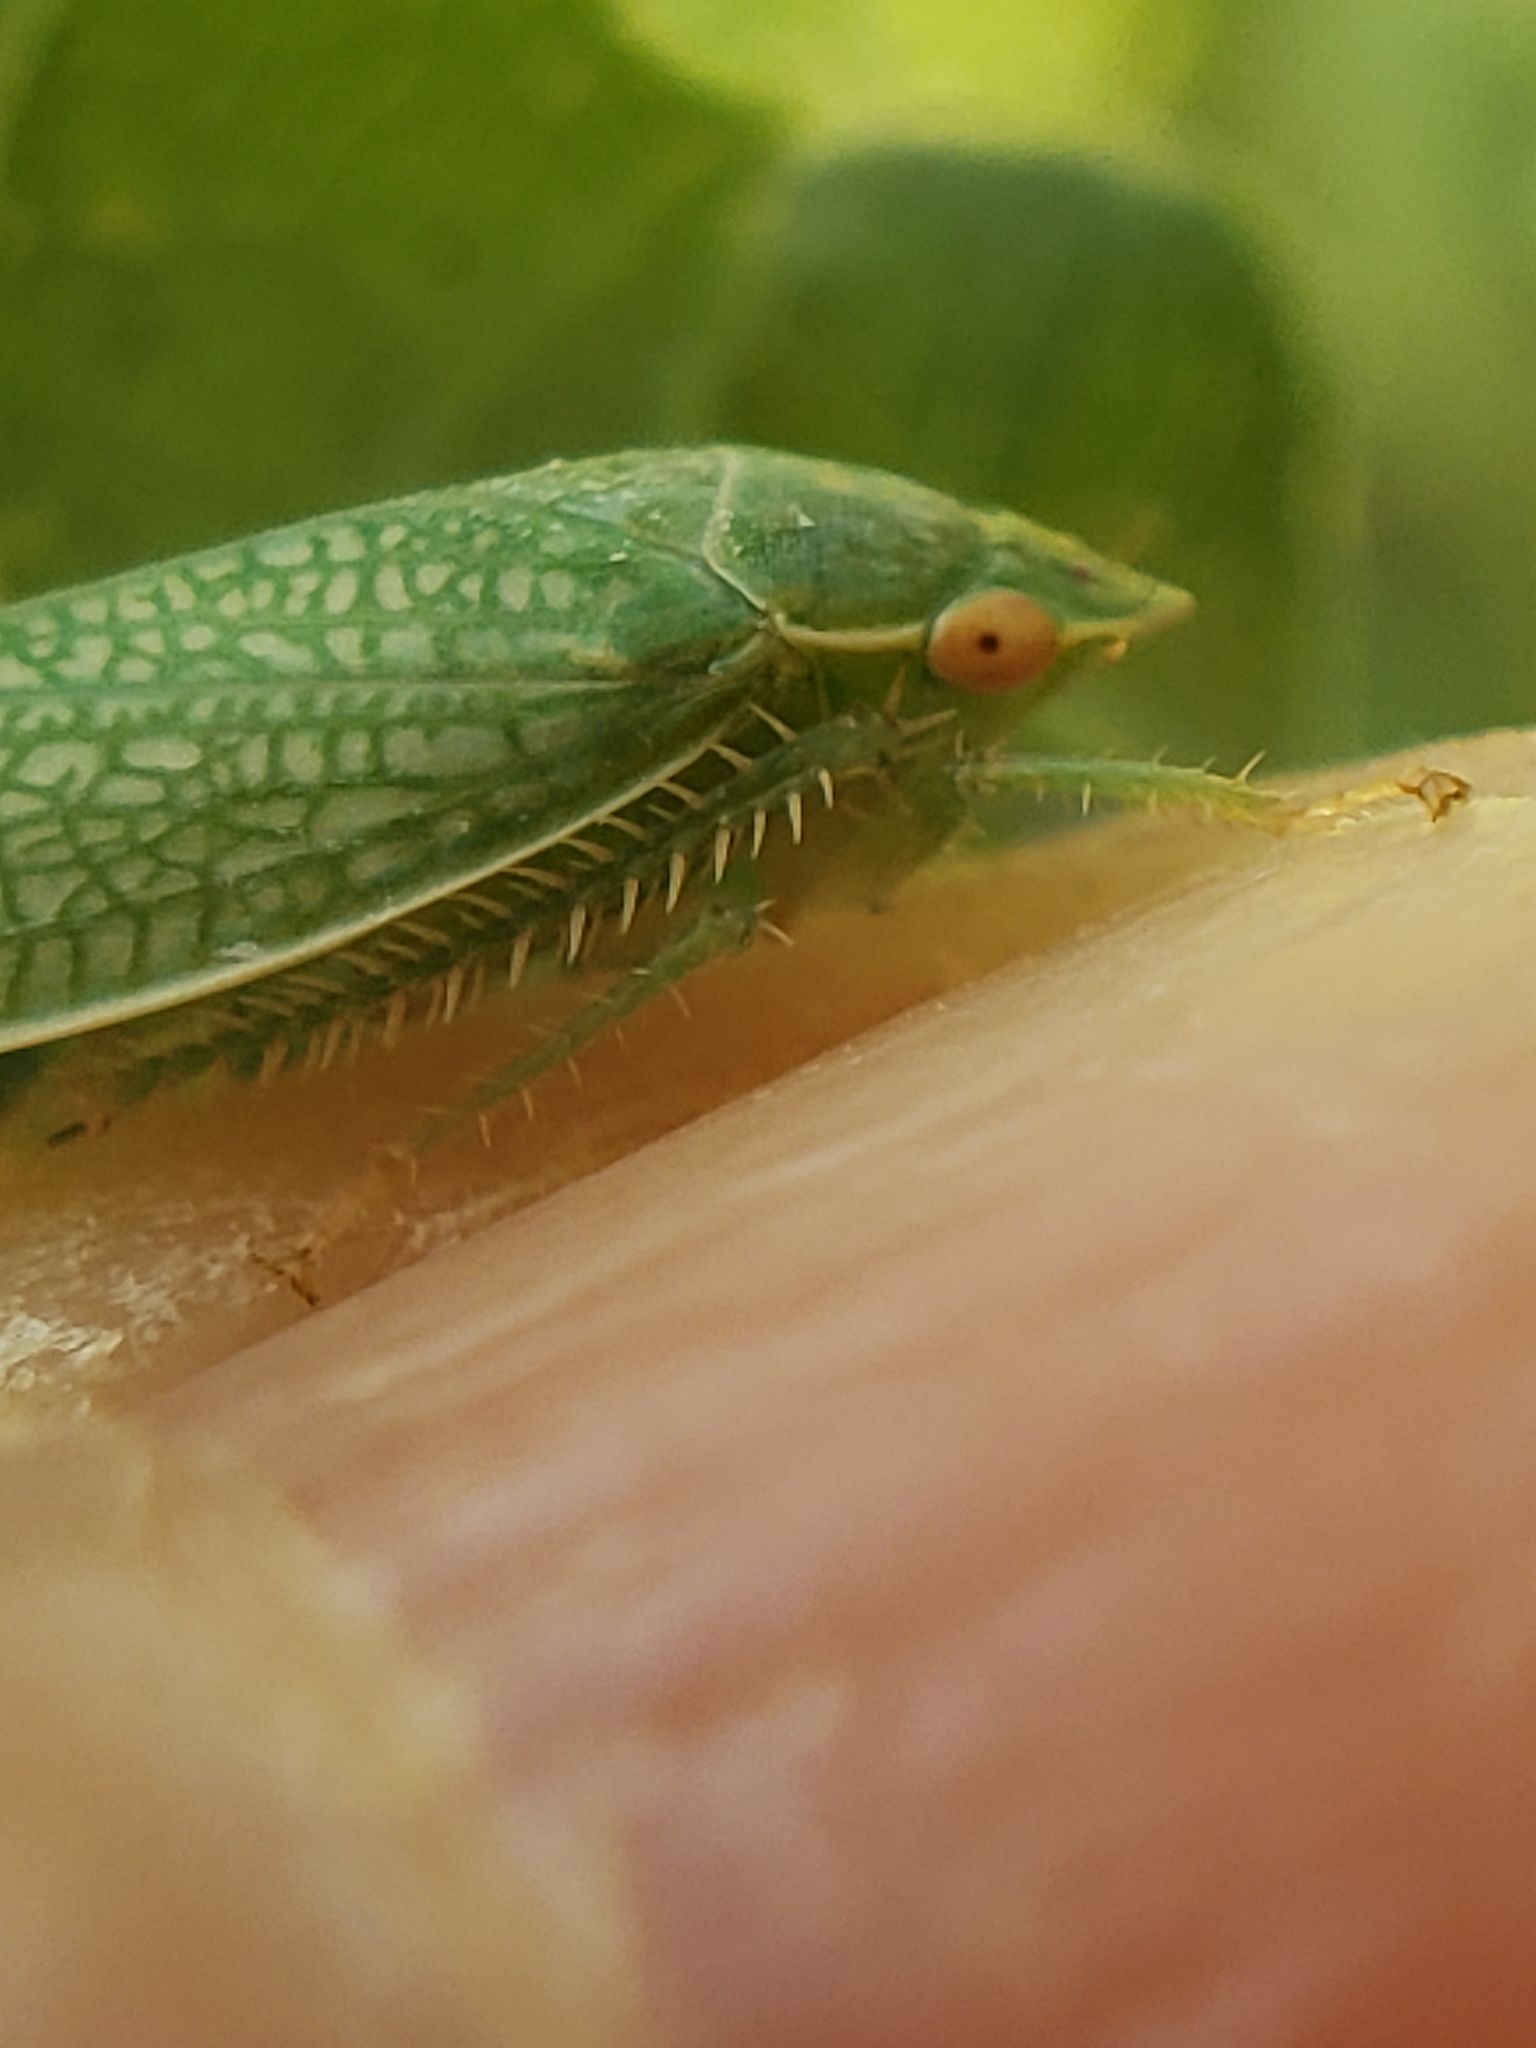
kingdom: Animalia
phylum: Arthropoda
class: Insecta
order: Hemiptera
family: Cicadellidae
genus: Gyponana
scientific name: Gyponana procera
